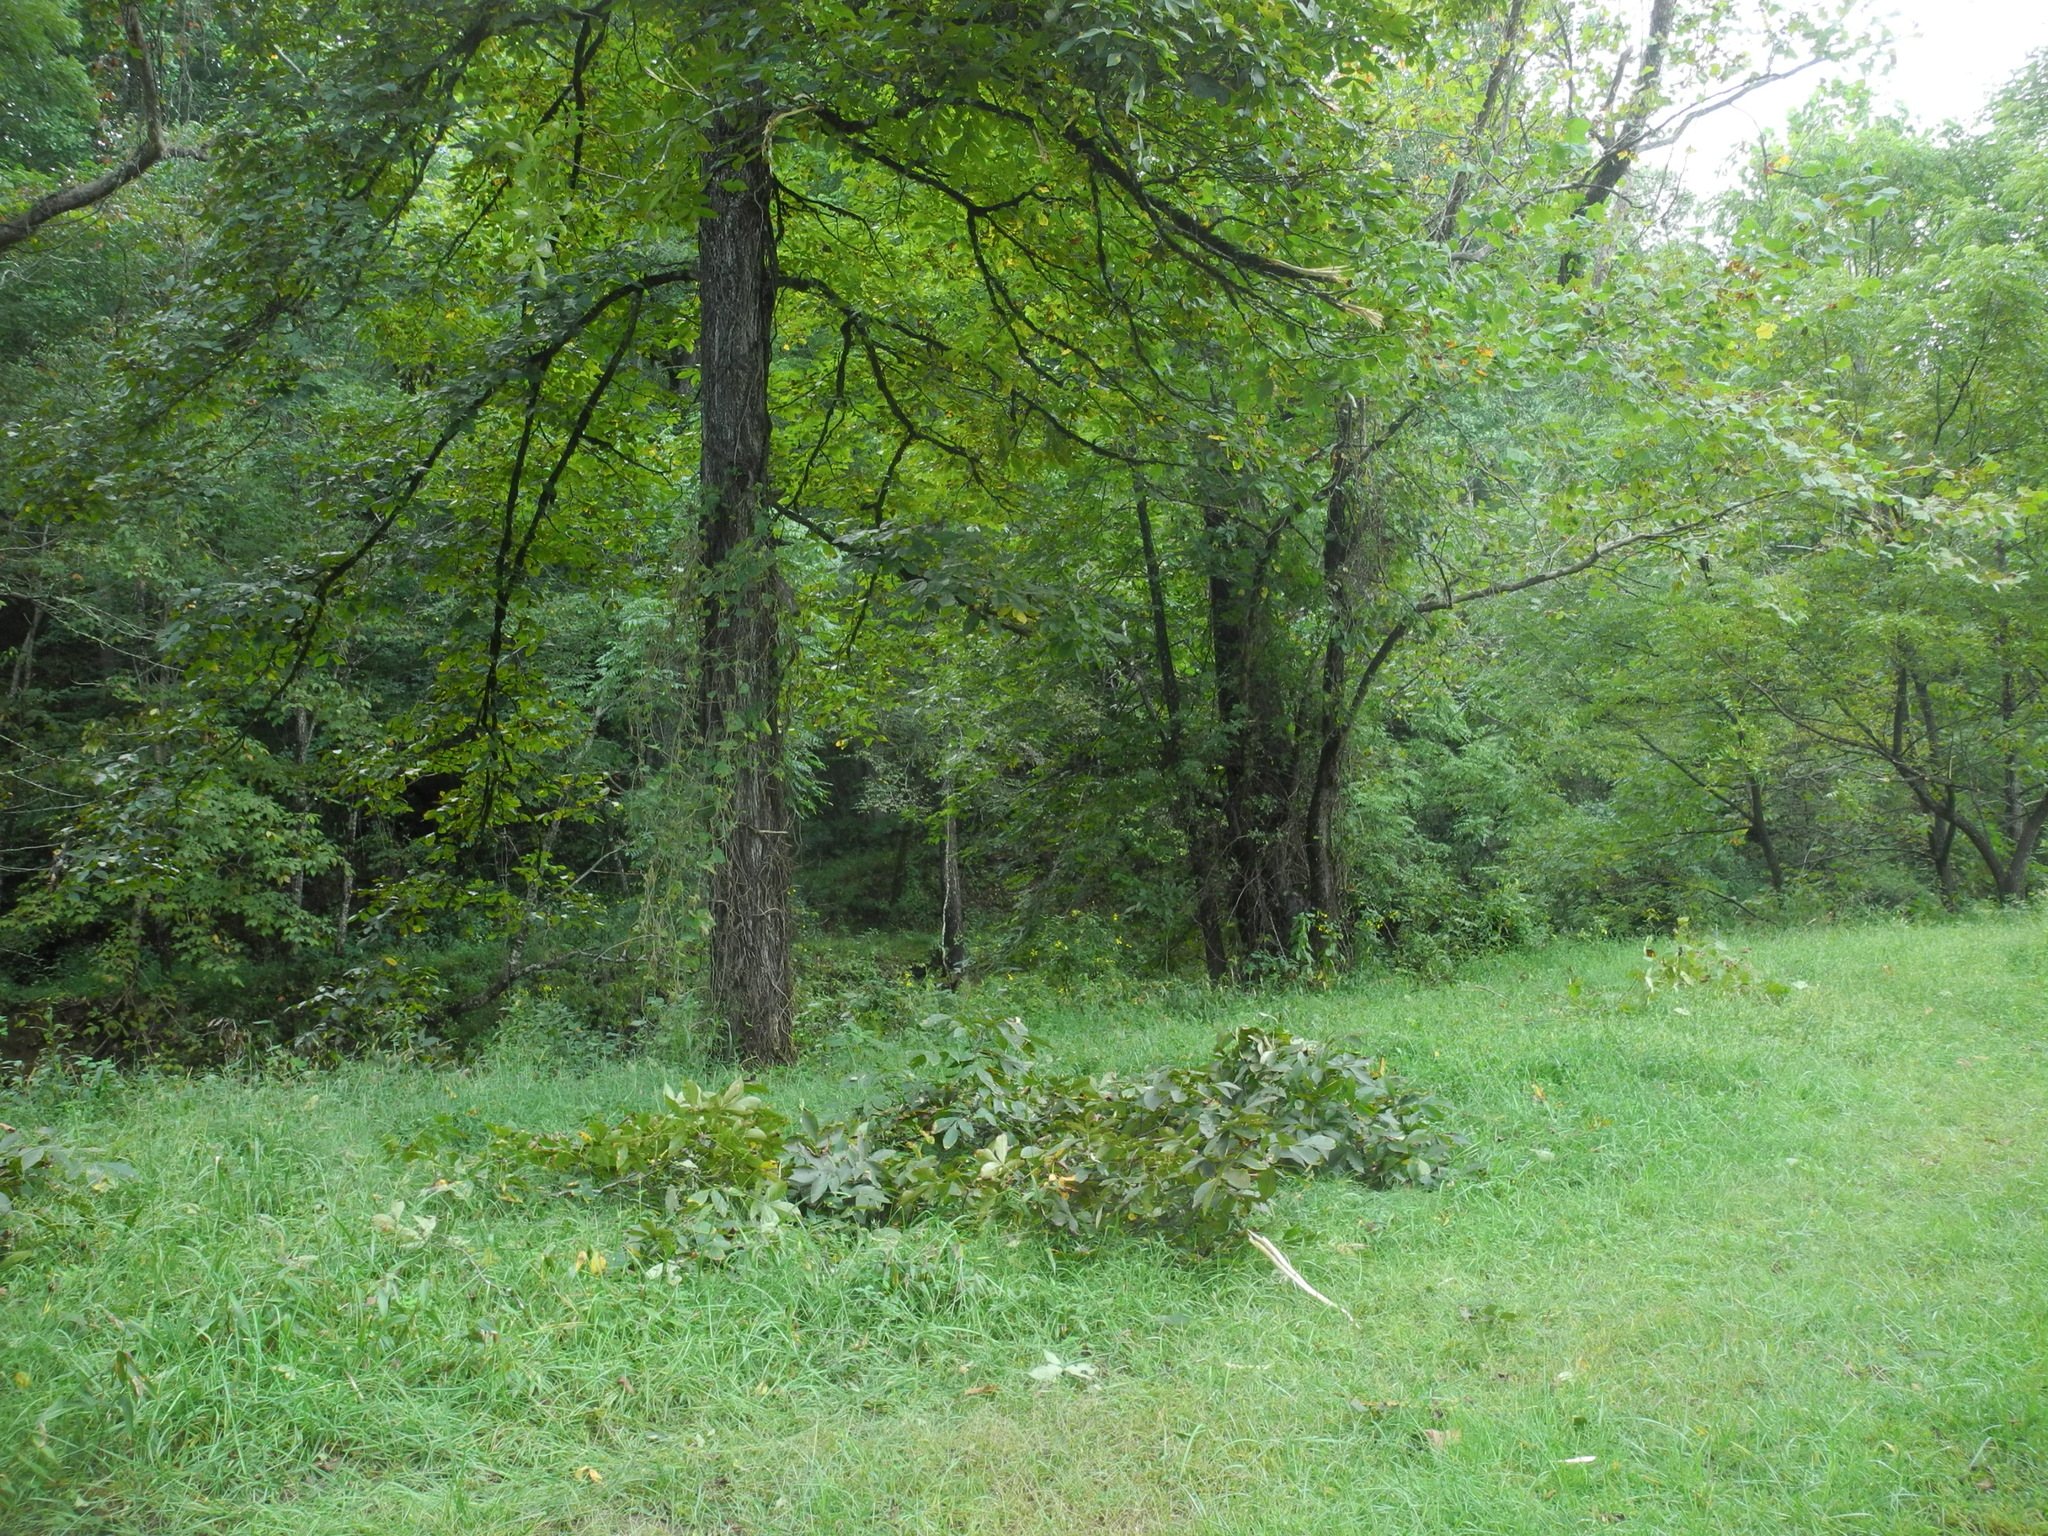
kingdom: Plantae
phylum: Tracheophyta
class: Magnoliopsida
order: Fagales
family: Juglandaceae
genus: Carya
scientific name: Carya ovalis
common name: False shagbark
